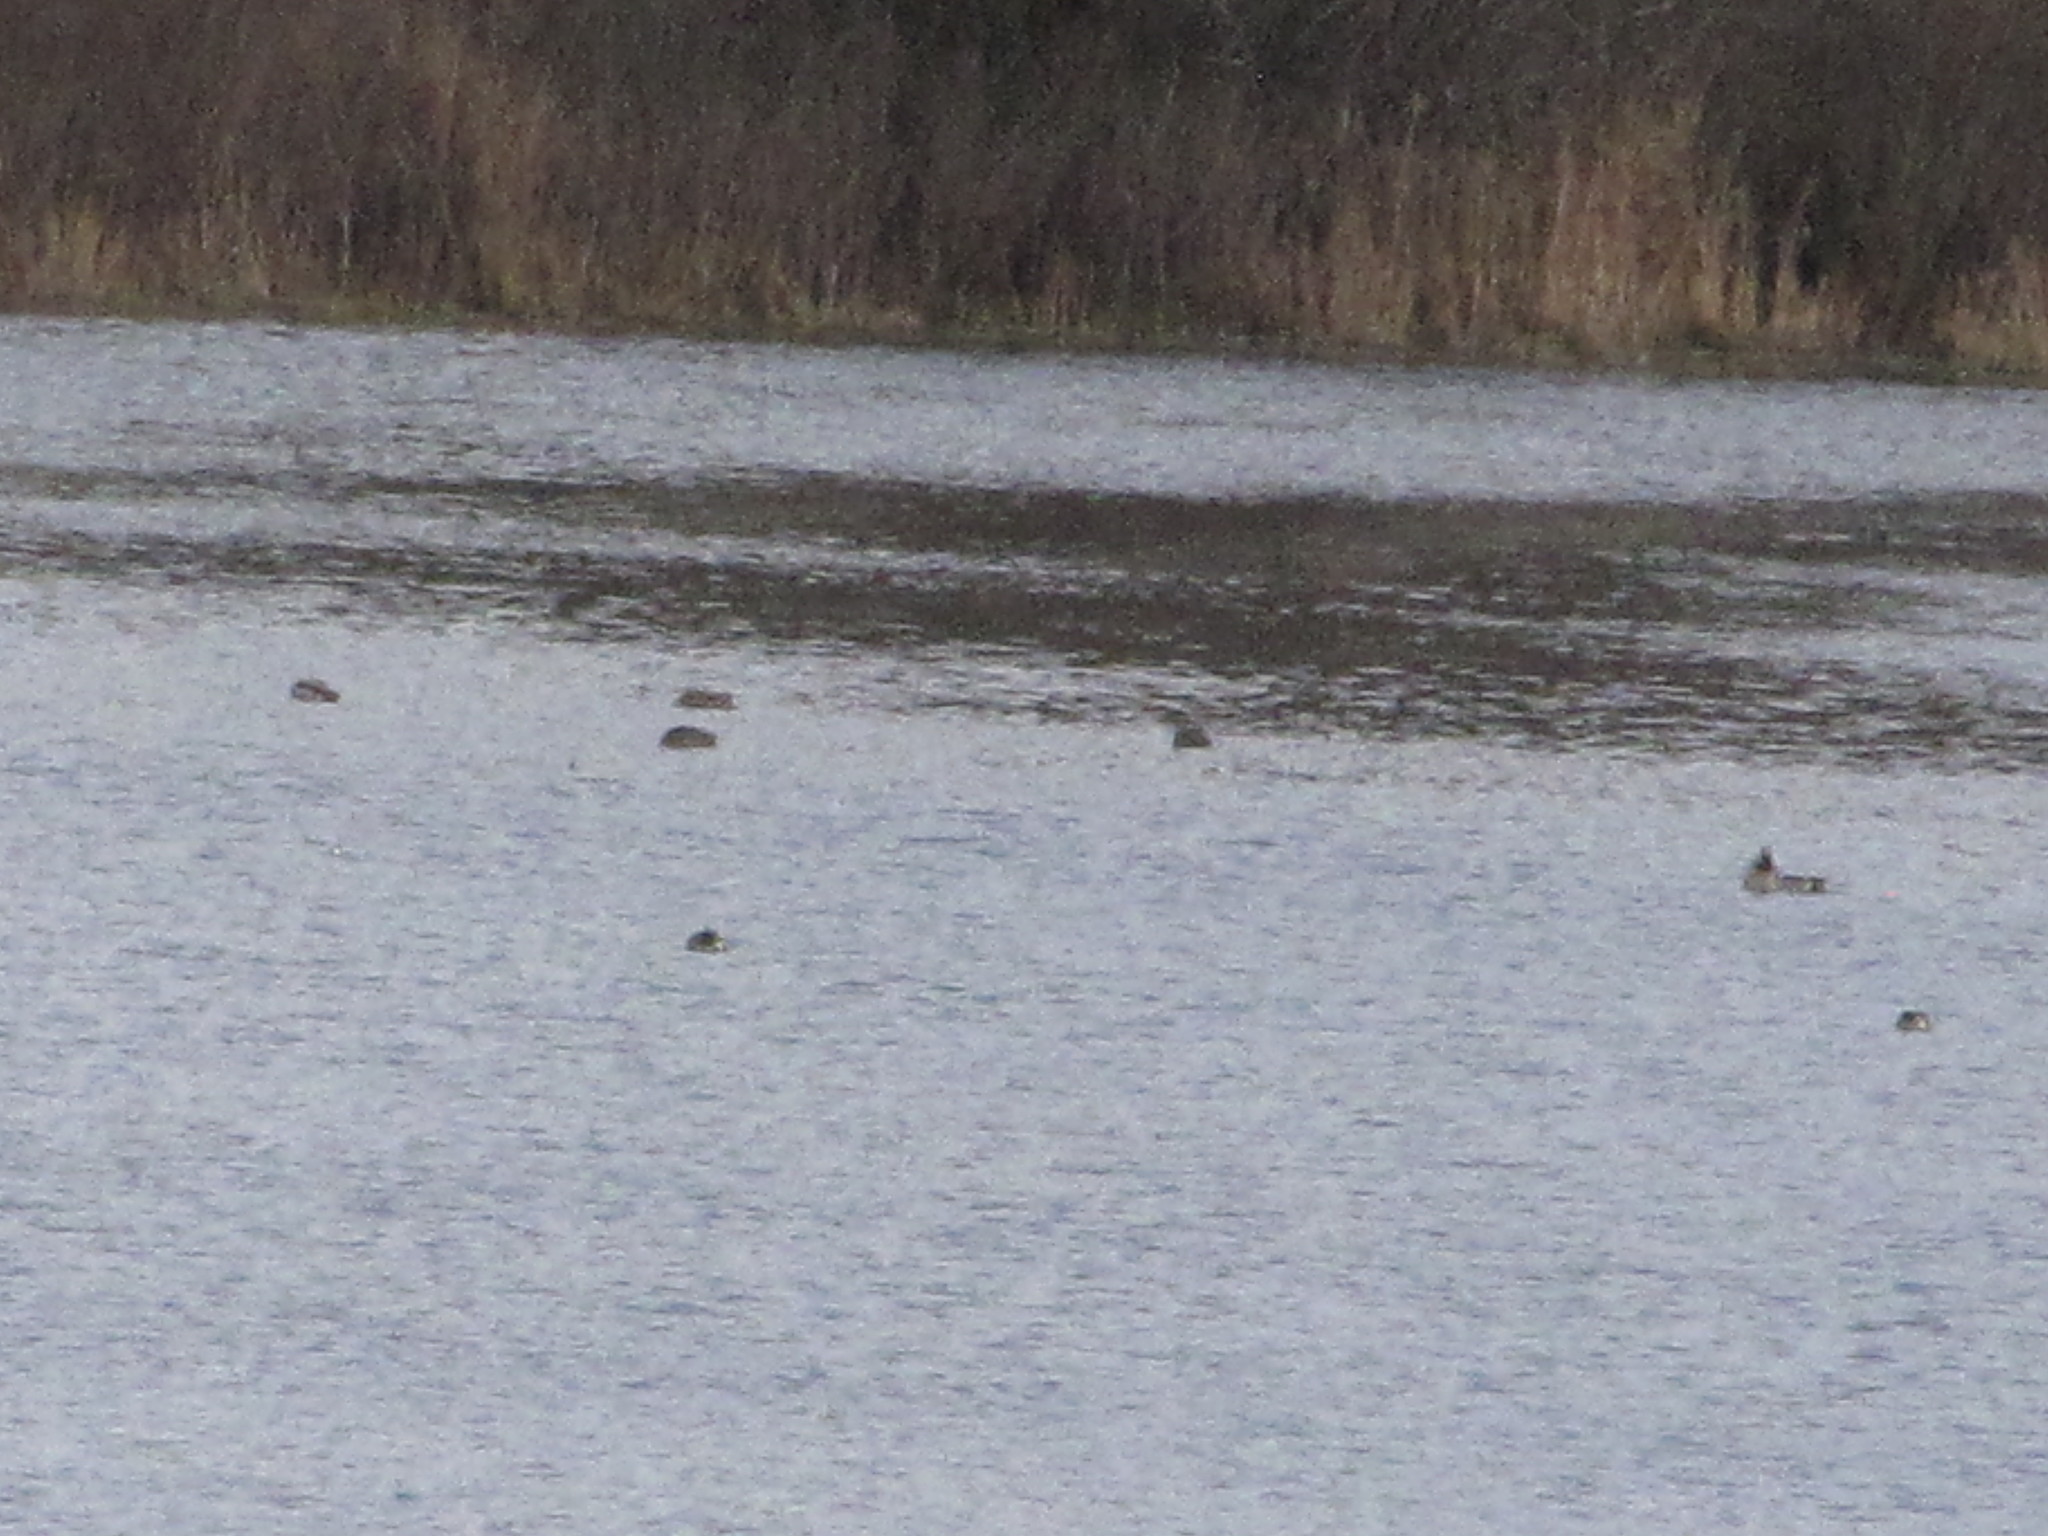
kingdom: Animalia
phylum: Chordata
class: Aves
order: Anseriformes
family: Anatidae
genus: Anas
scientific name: Anas platyrhynchos
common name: Mallard
